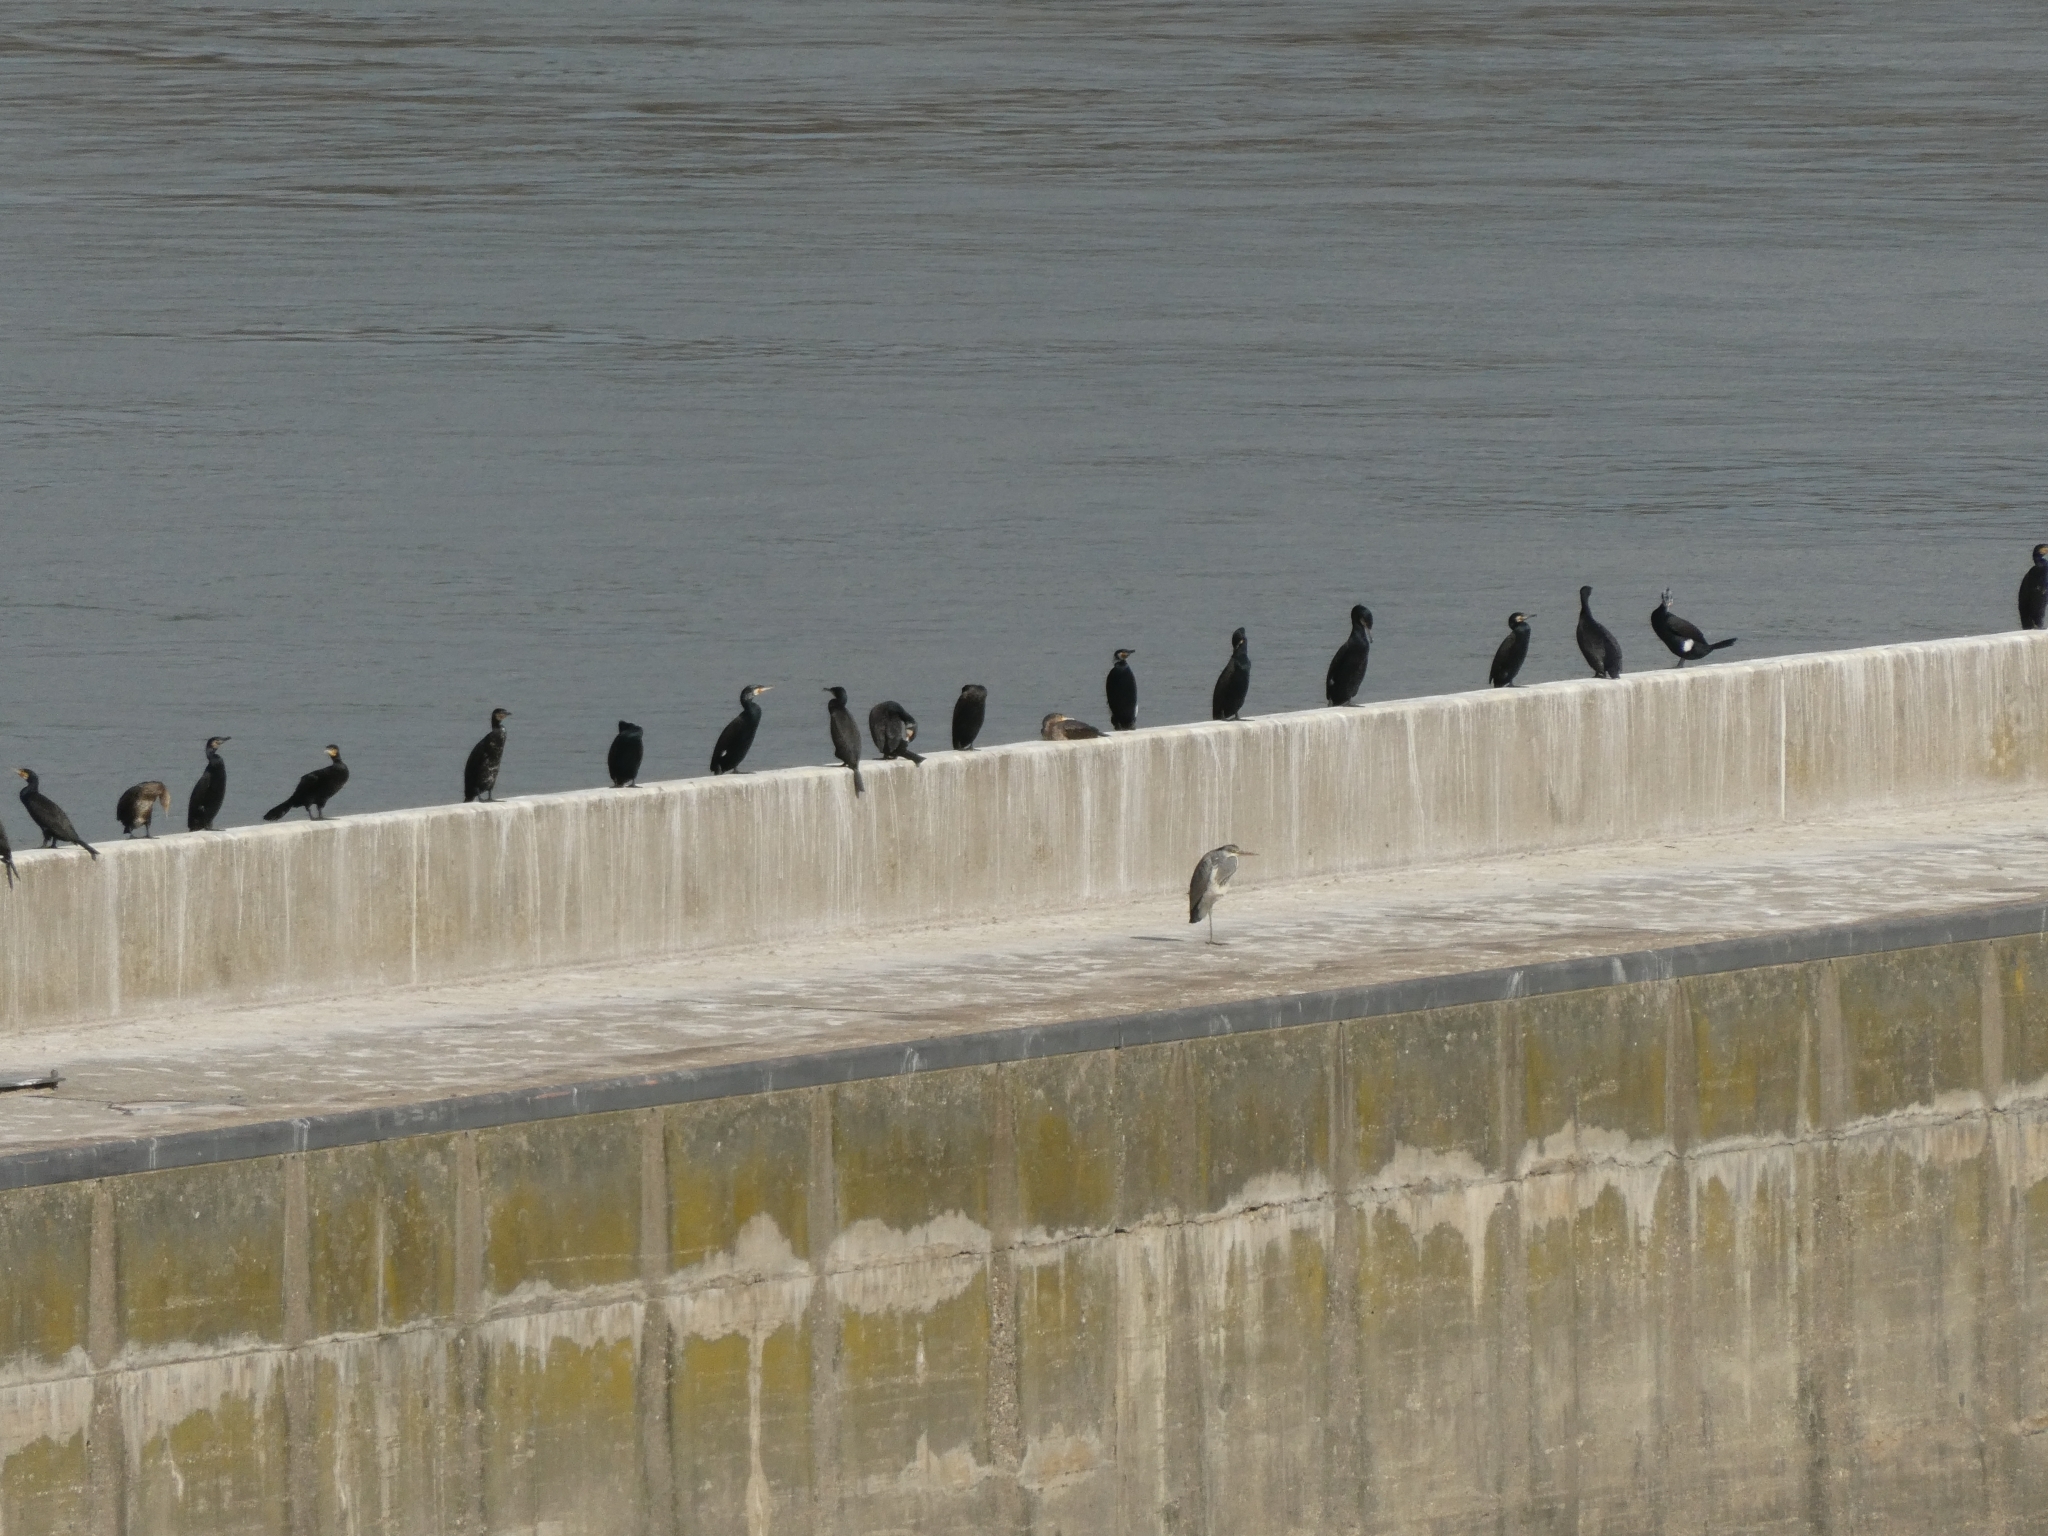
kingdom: Animalia
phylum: Chordata
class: Aves
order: Suliformes
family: Phalacrocoracidae
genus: Phalacrocorax
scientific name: Phalacrocorax carbo
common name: Great cormorant
